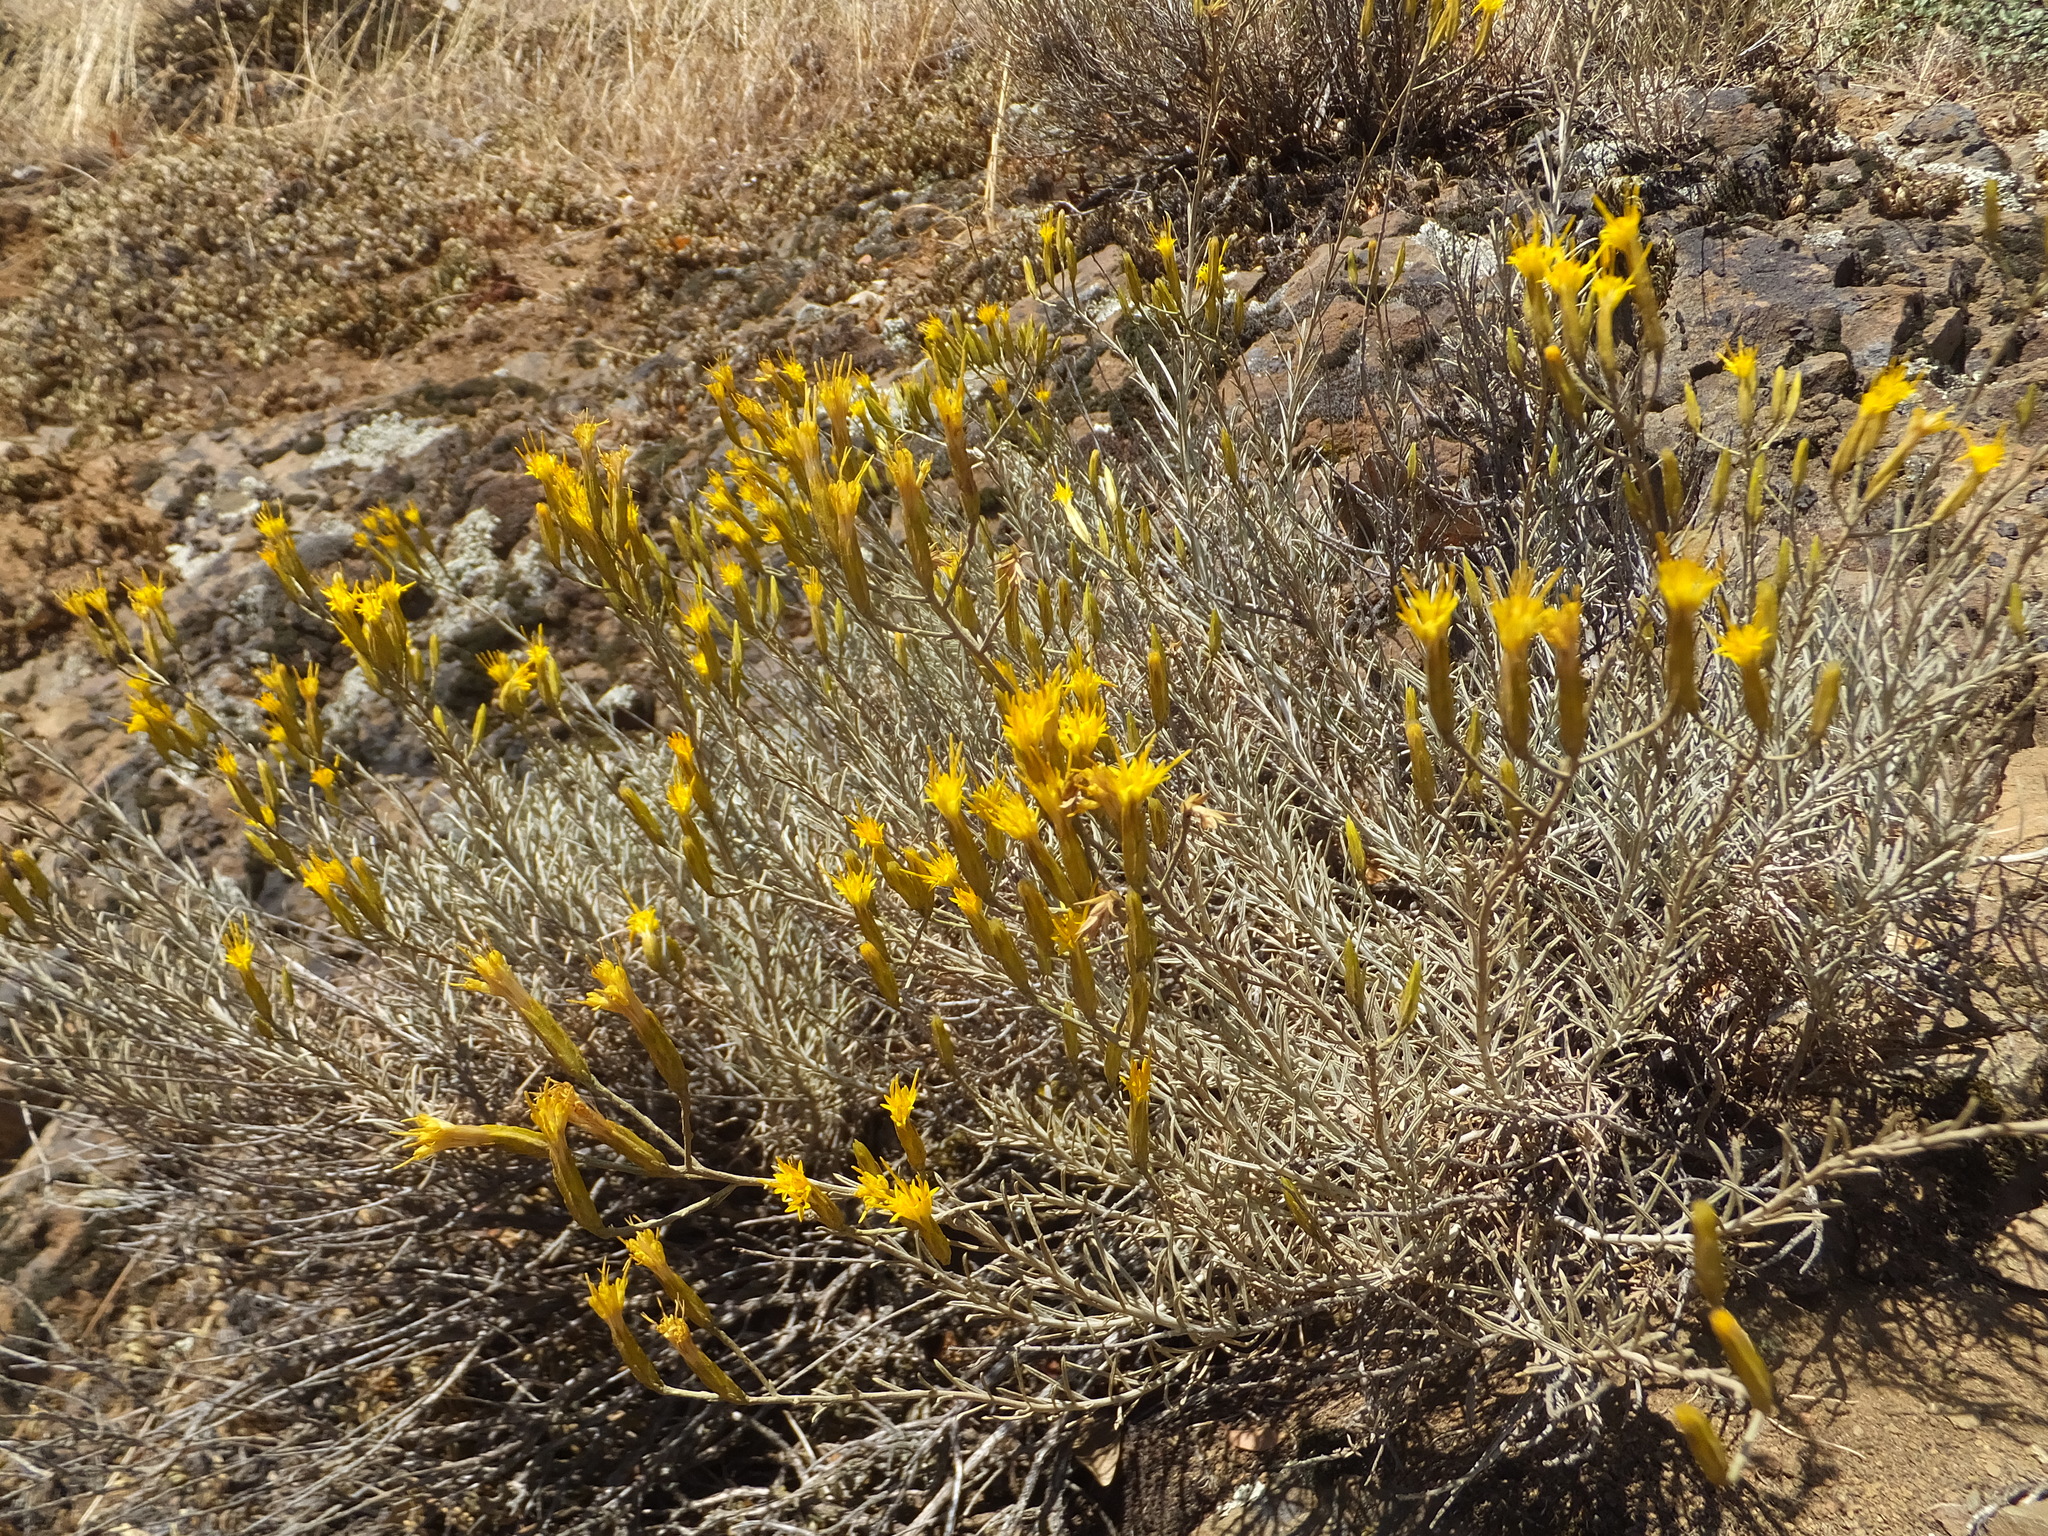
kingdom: Plantae
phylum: Tracheophyta
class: Magnoliopsida
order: Asterales
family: Asteraceae
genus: Ericameria
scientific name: Ericameria nauseosa
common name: Rubber rabbitbrush
